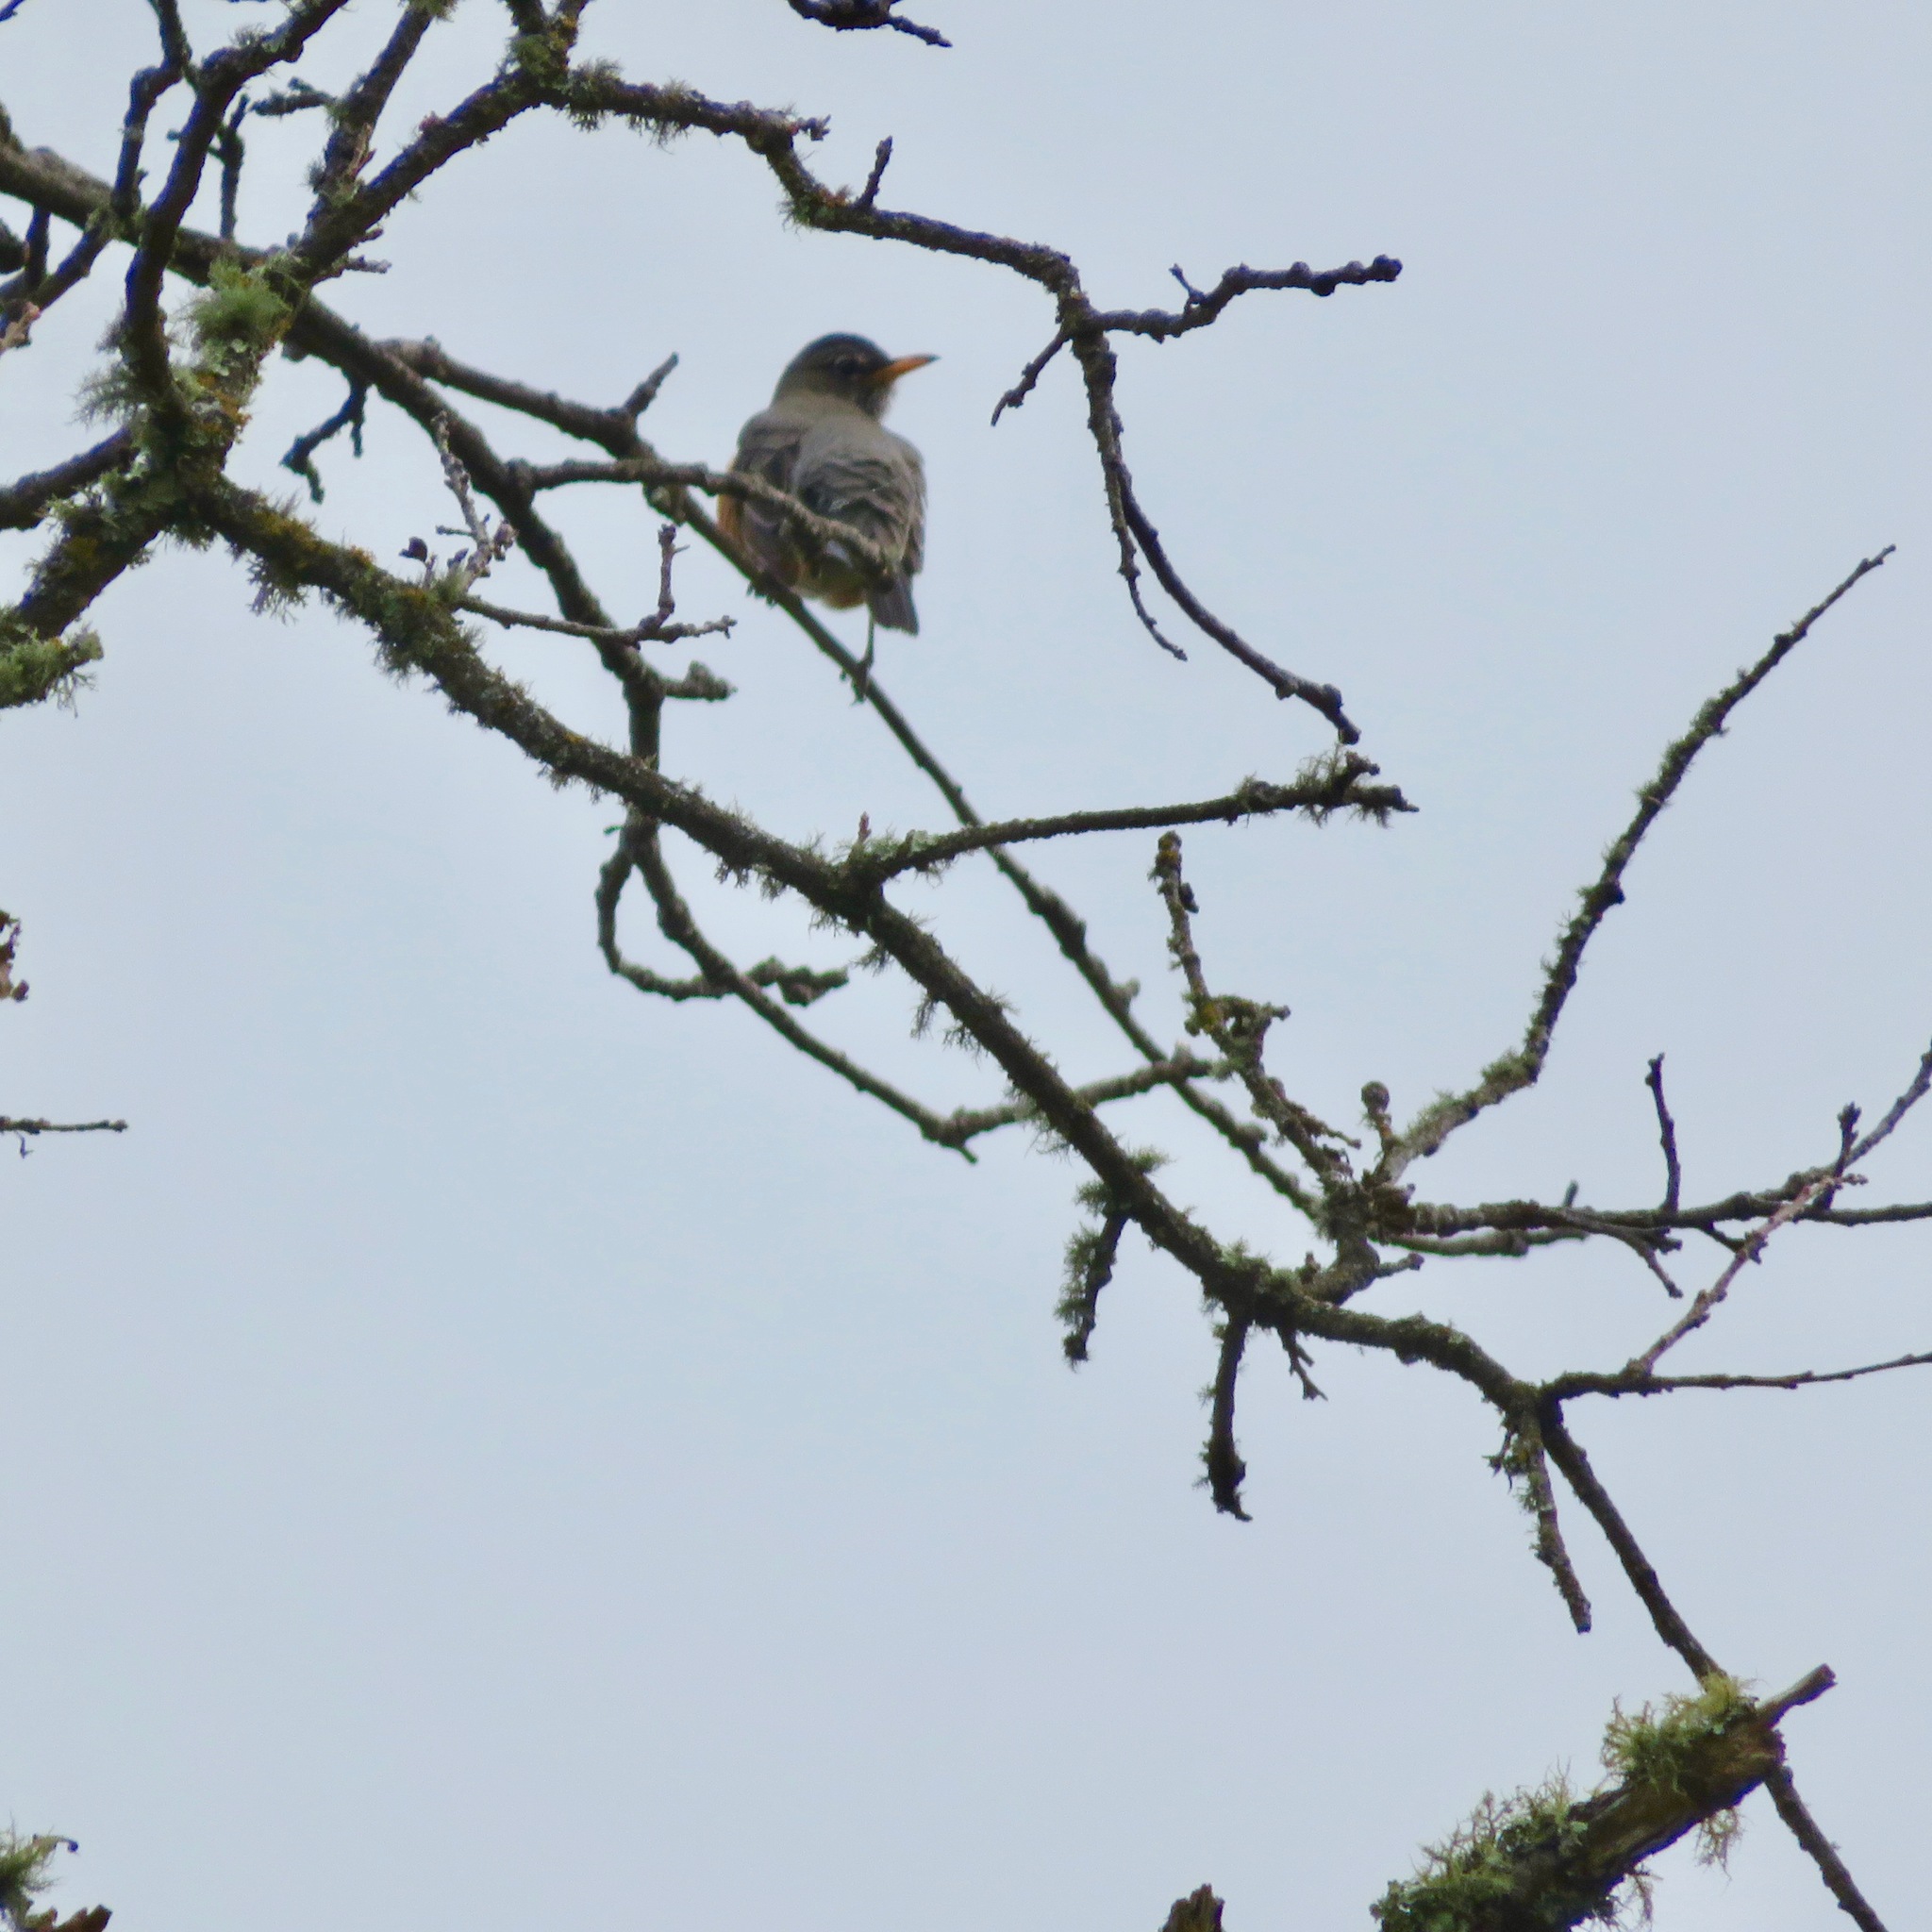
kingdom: Animalia
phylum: Chordata
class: Aves
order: Passeriformes
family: Turdidae
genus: Turdus
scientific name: Turdus migratorius
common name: American robin
